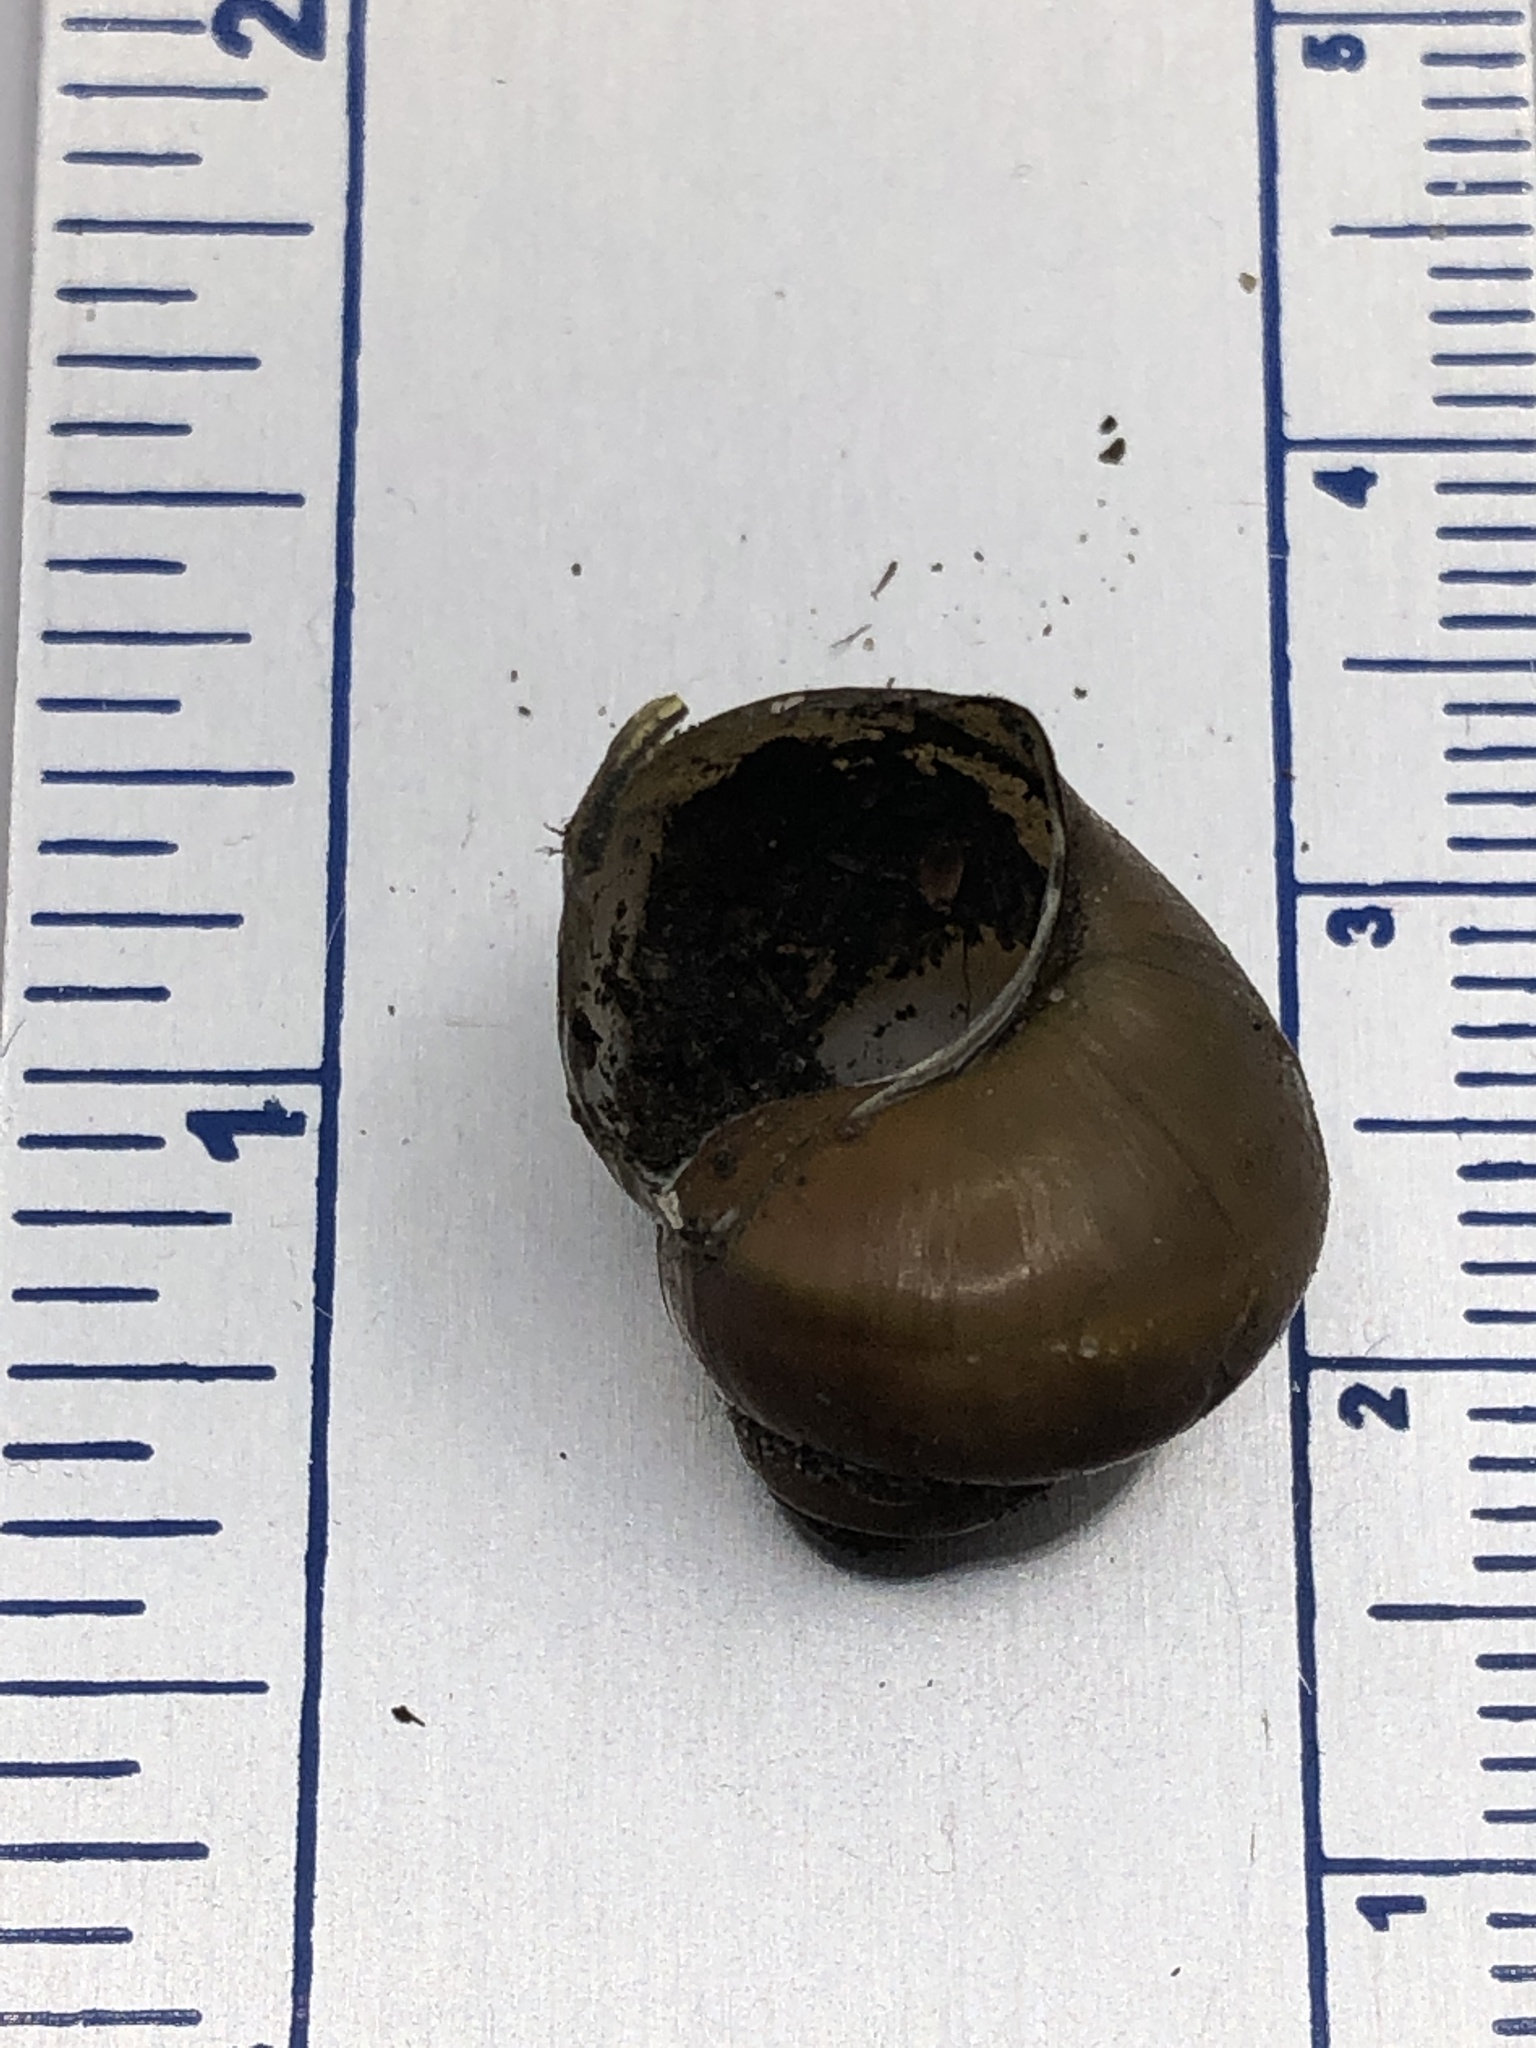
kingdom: Animalia
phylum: Mollusca
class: Gastropoda
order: Architaenioglossa
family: Viviparidae
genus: Cipangopaludina
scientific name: Cipangopaludina chinensis
